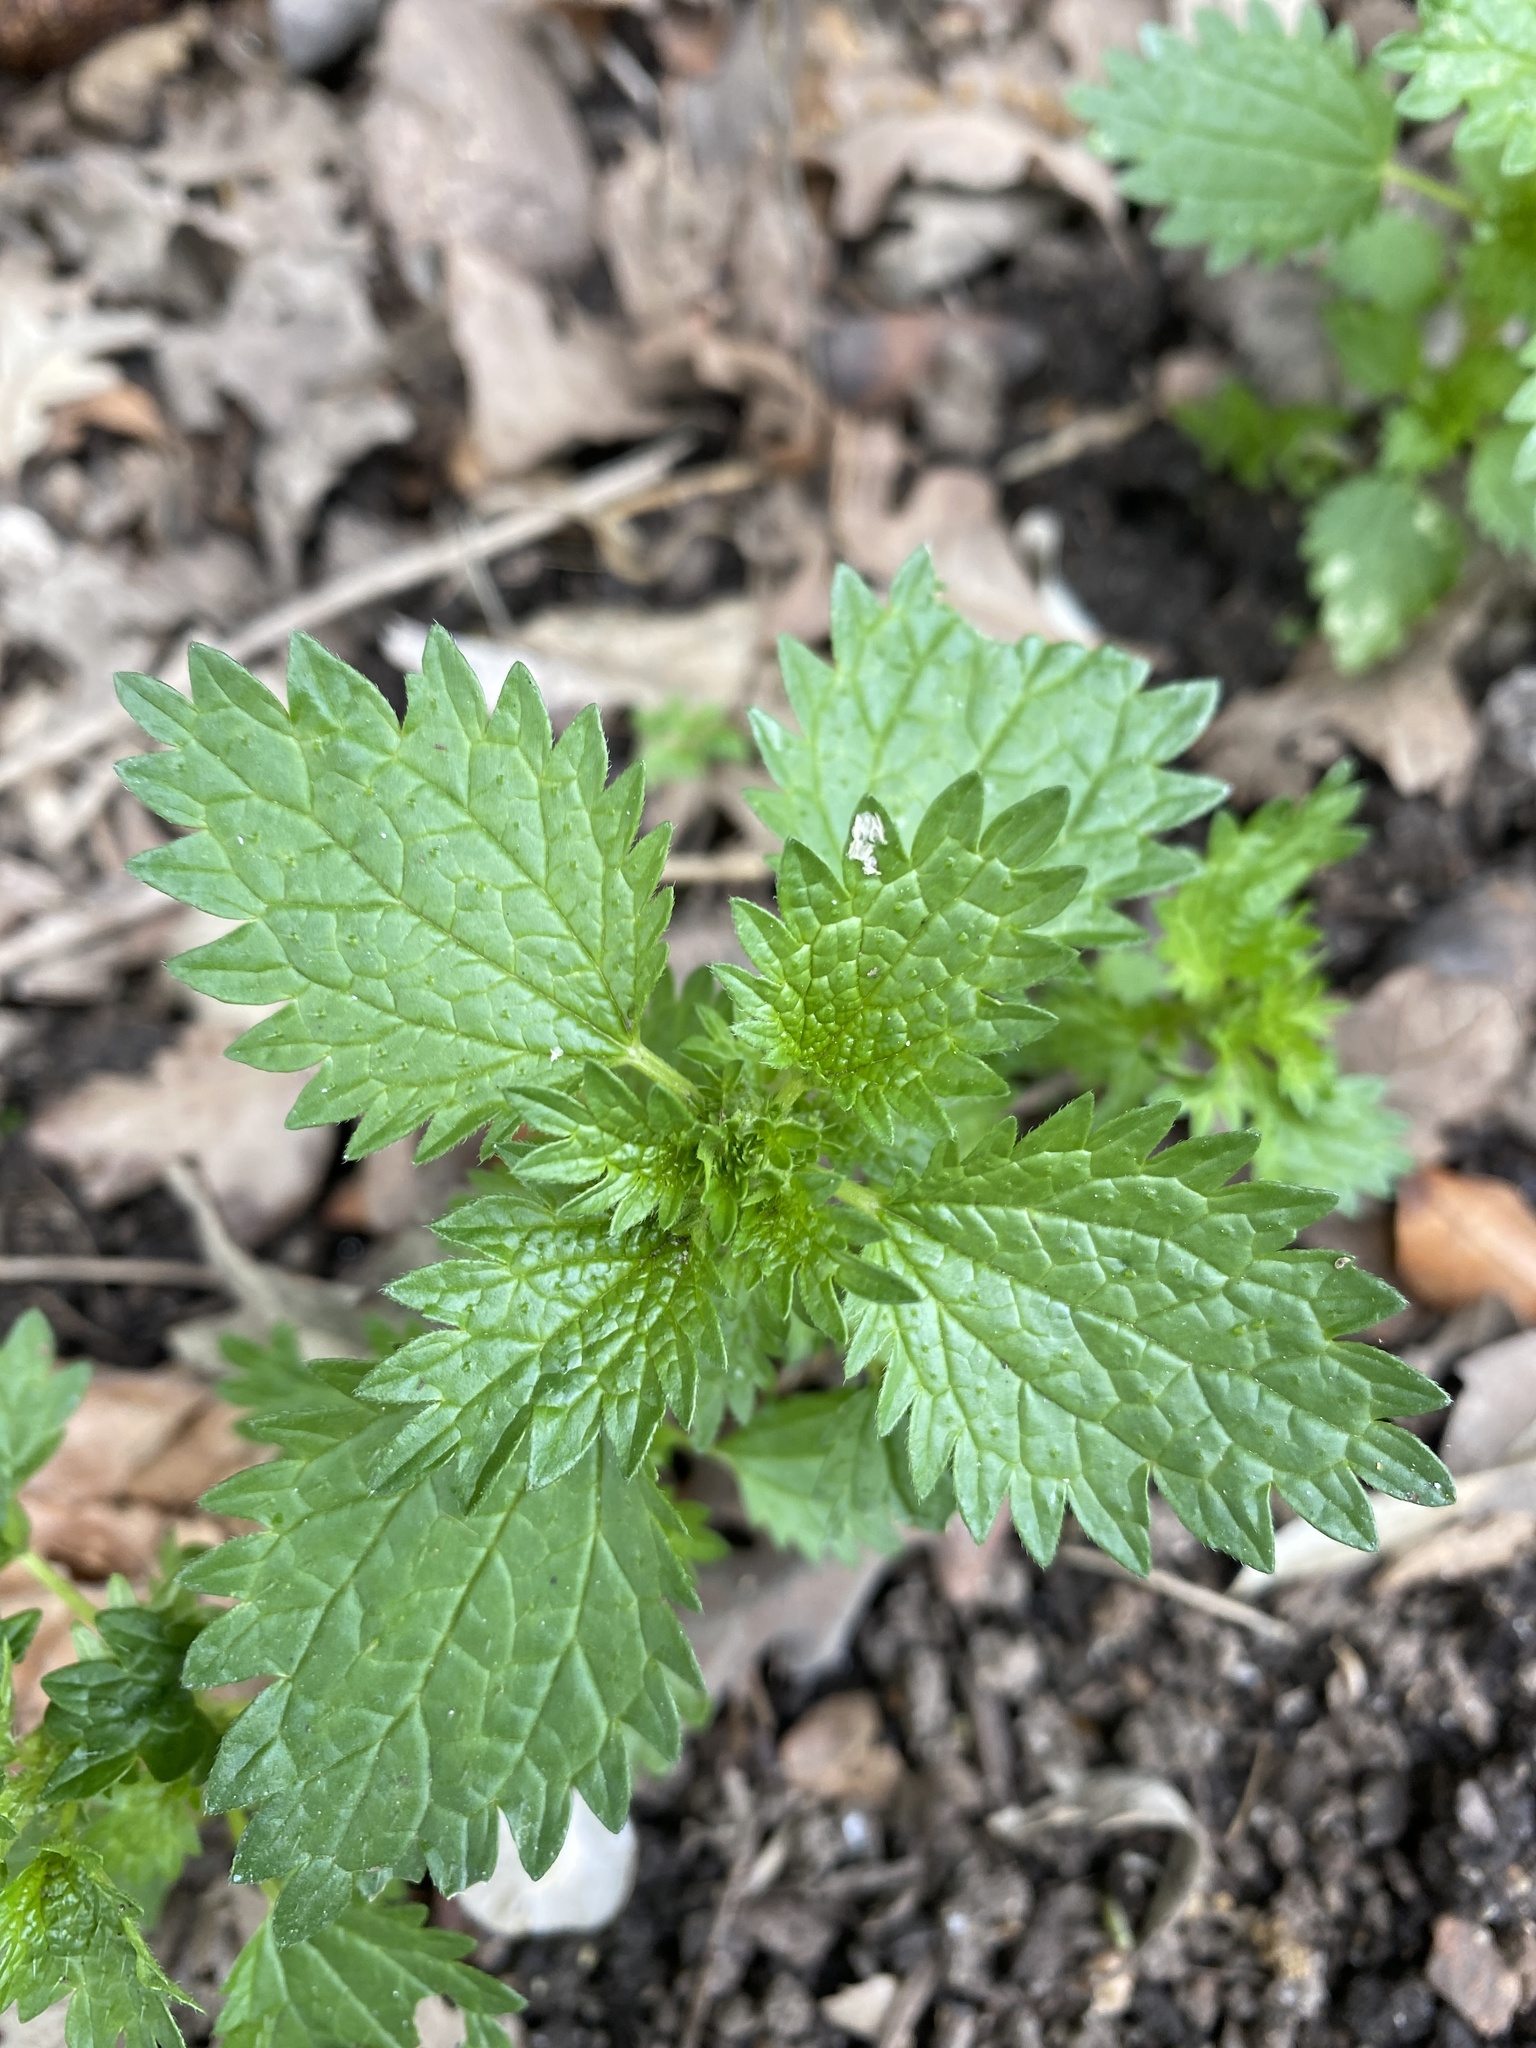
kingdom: Plantae
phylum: Tracheophyta
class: Magnoliopsida
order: Rosales
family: Urticaceae
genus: Urtica
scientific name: Urtica urens
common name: Dwarf nettle
